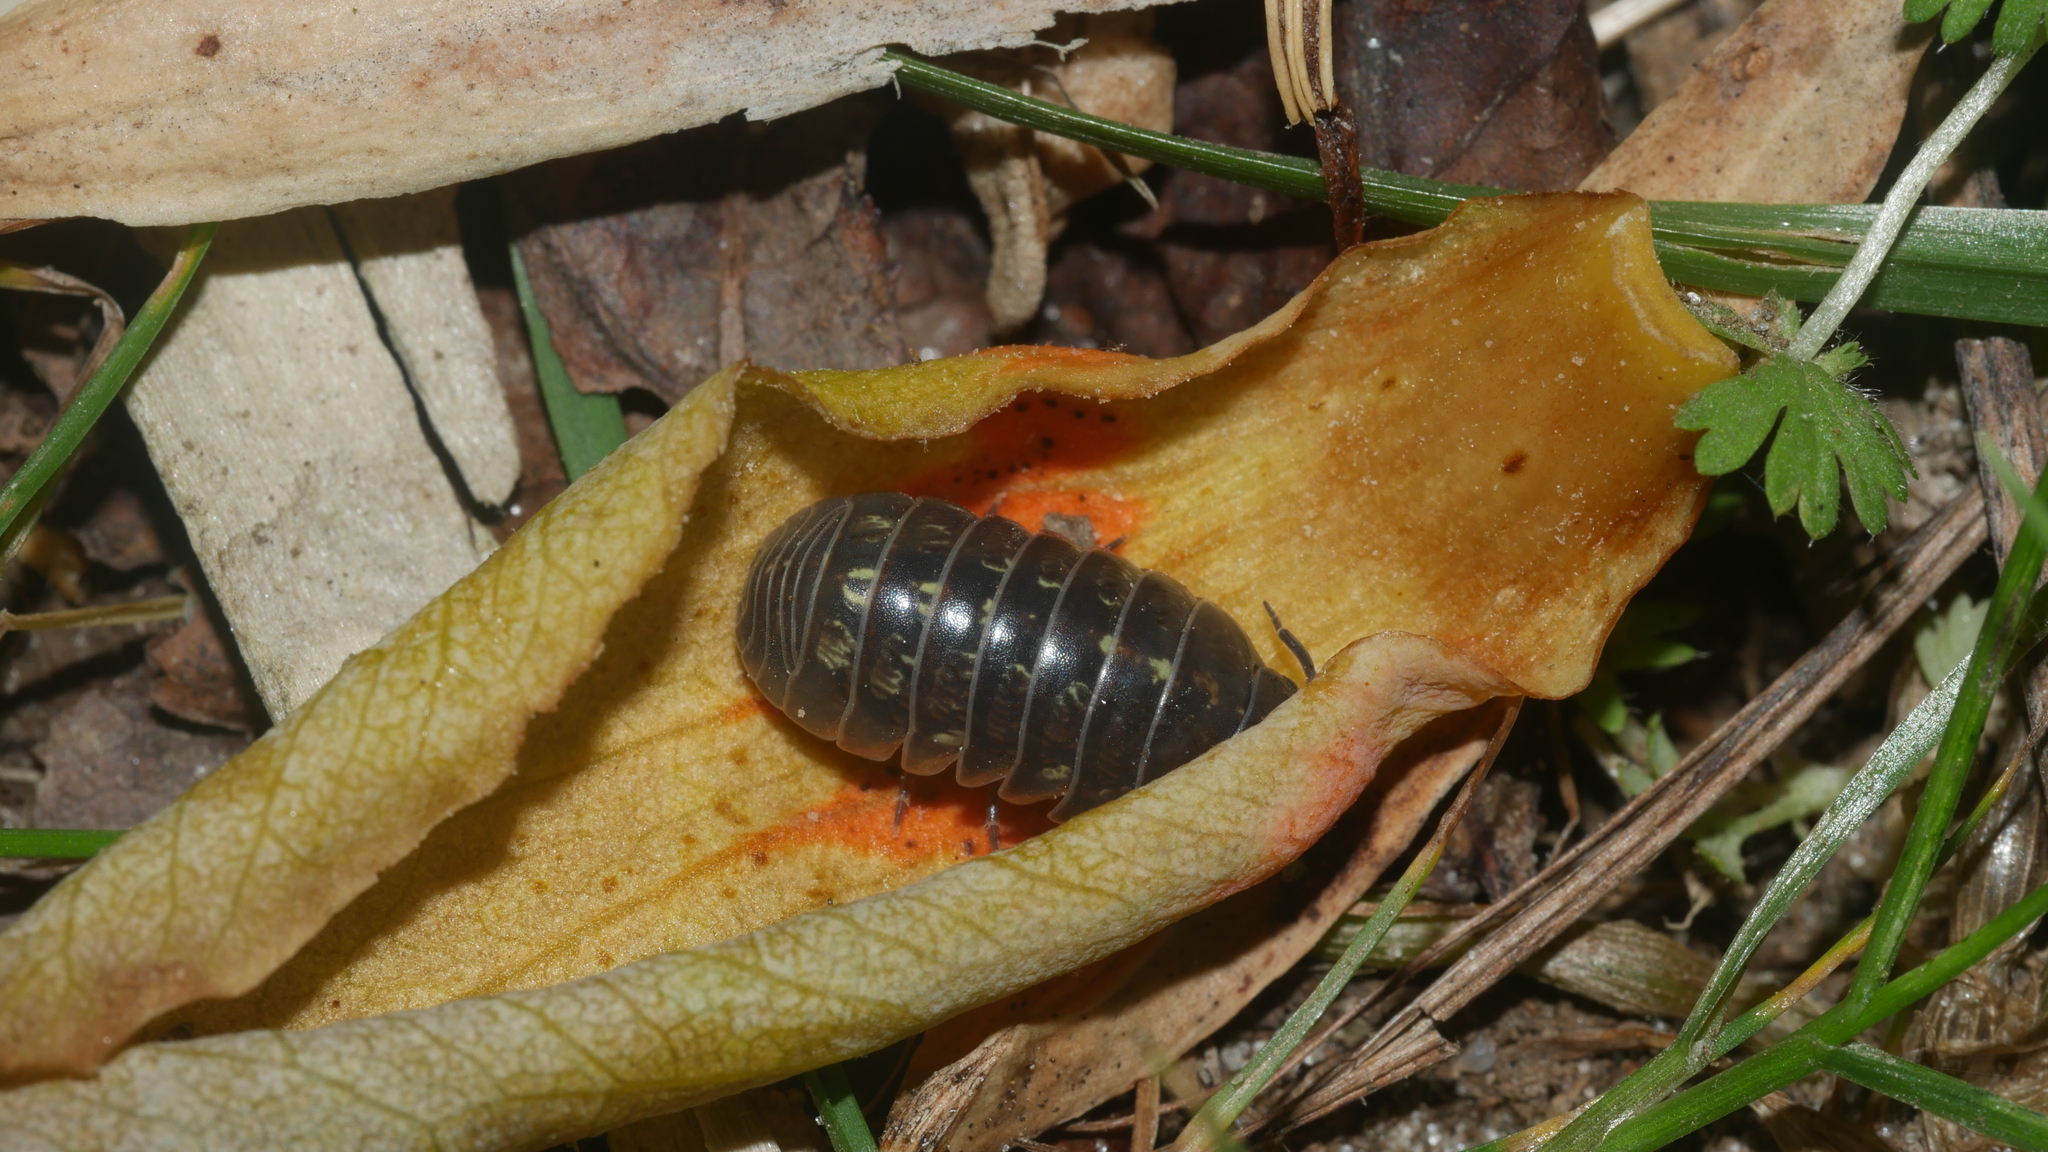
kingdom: Animalia
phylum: Arthropoda
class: Malacostraca
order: Isopoda
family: Armadillidiidae
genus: Armadillidium
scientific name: Armadillidium vulgare
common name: Common pill woodlouse
